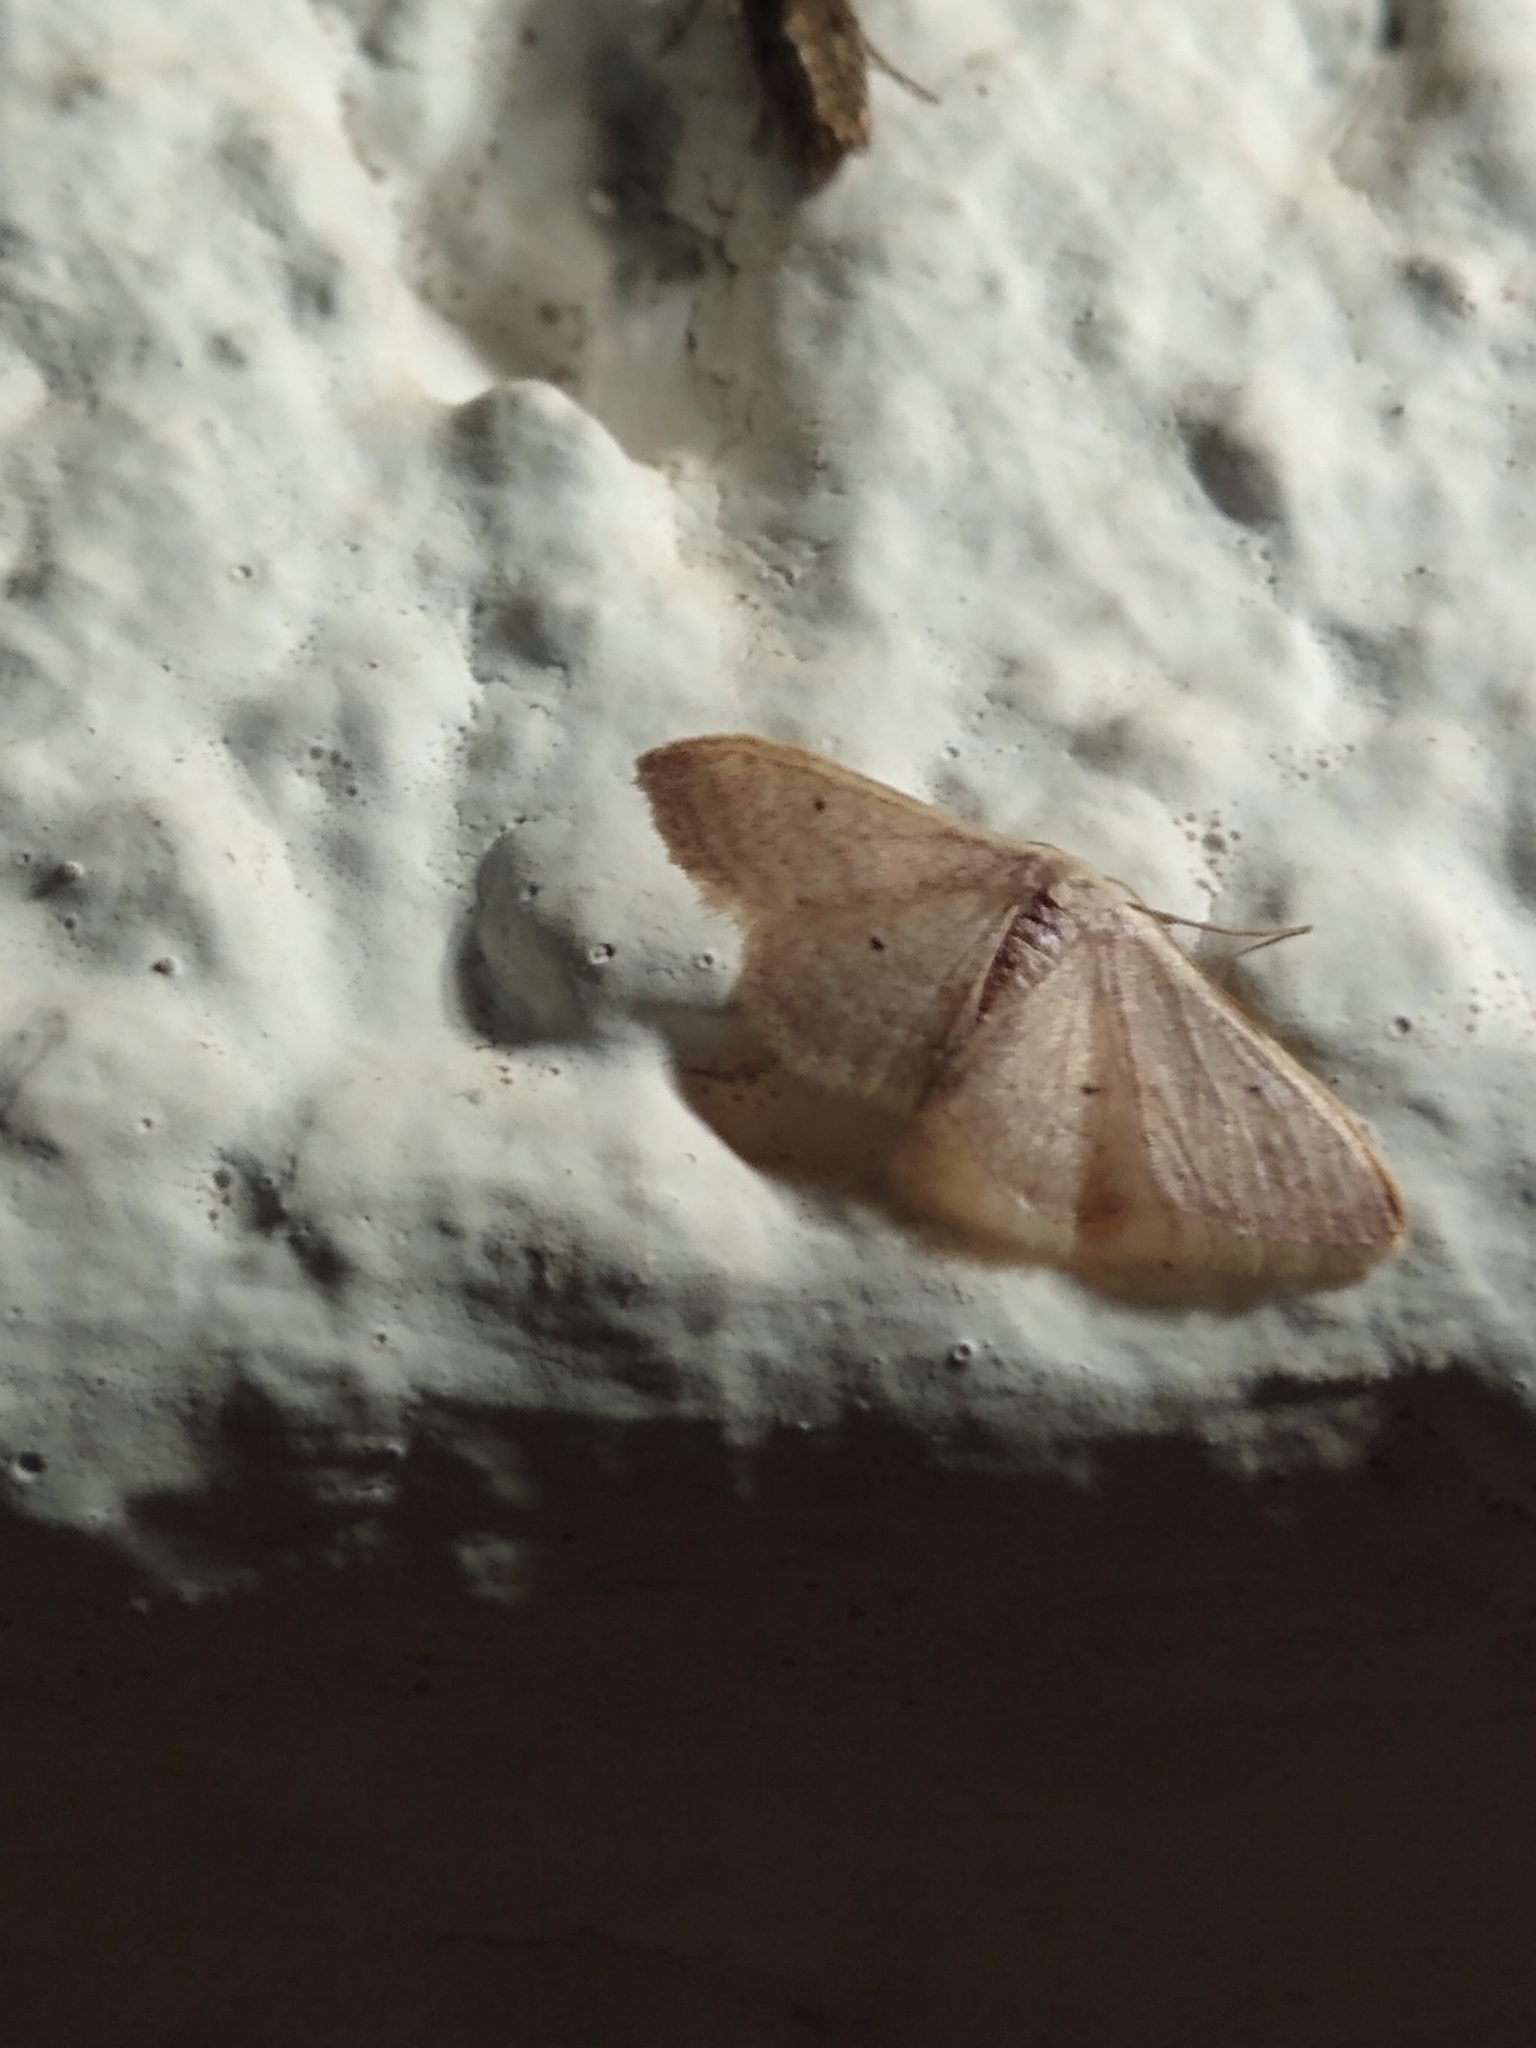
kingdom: Animalia
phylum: Arthropoda
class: Insecta
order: Lepidoptera
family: Geometridae
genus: Idaea
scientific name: Idaea distinctaria
